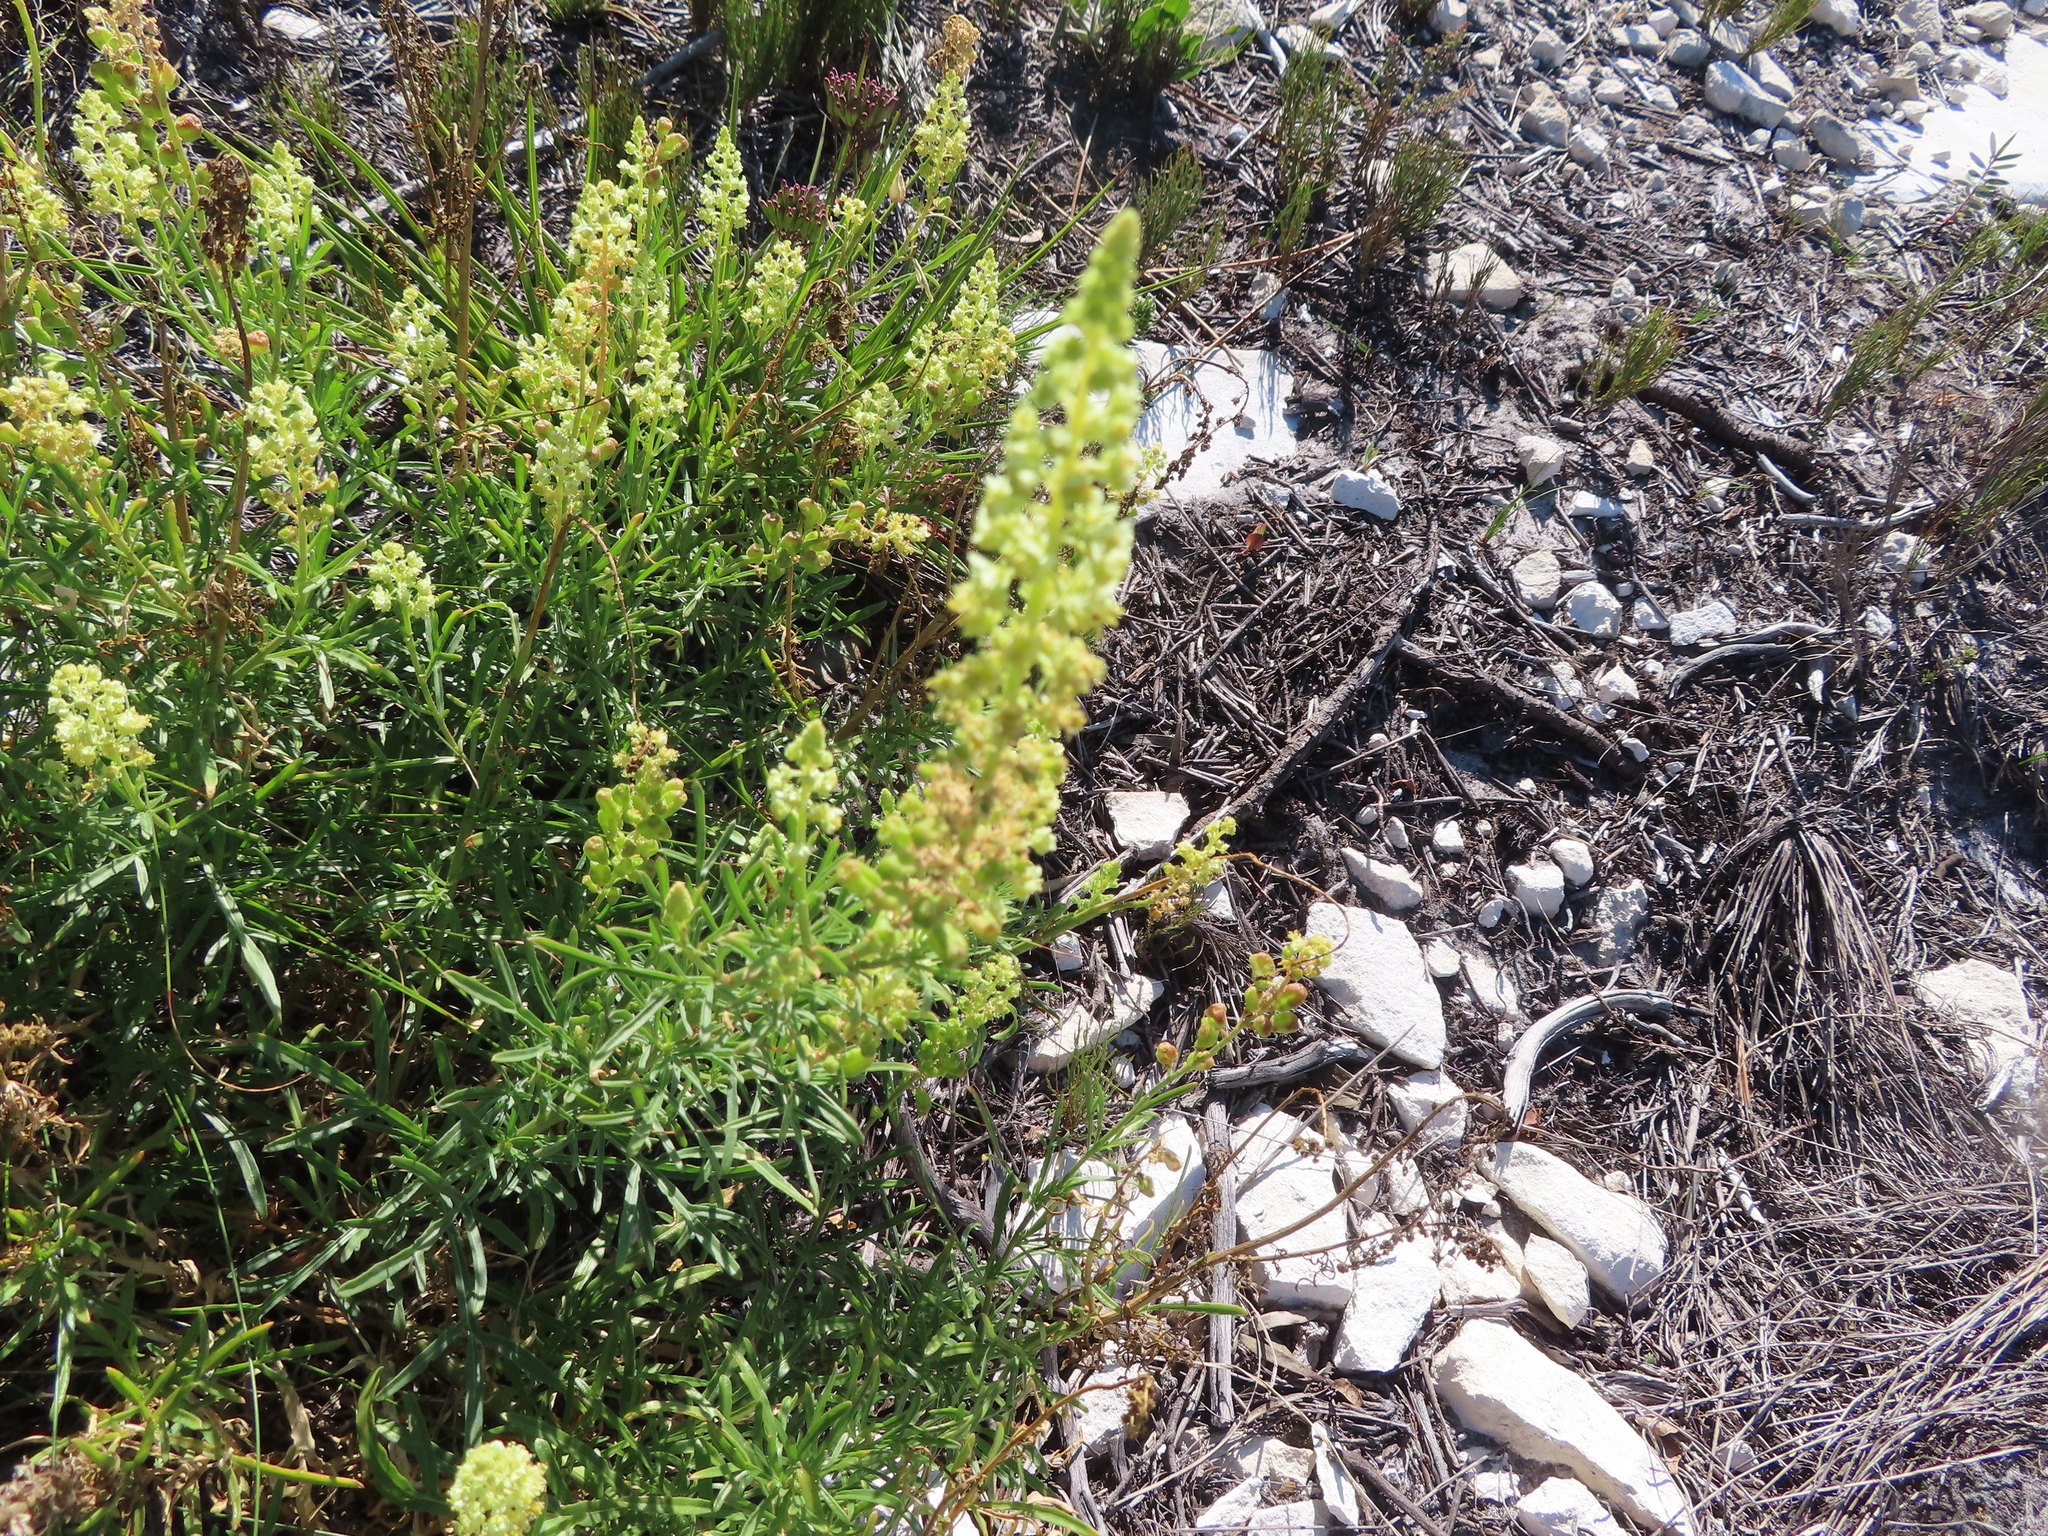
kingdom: Plantae
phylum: Tracheophyta
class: Magnoliopsida
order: Brassicales
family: Resedaceae
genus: Reseda
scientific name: Reseda lutea
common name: Wild mignonette
